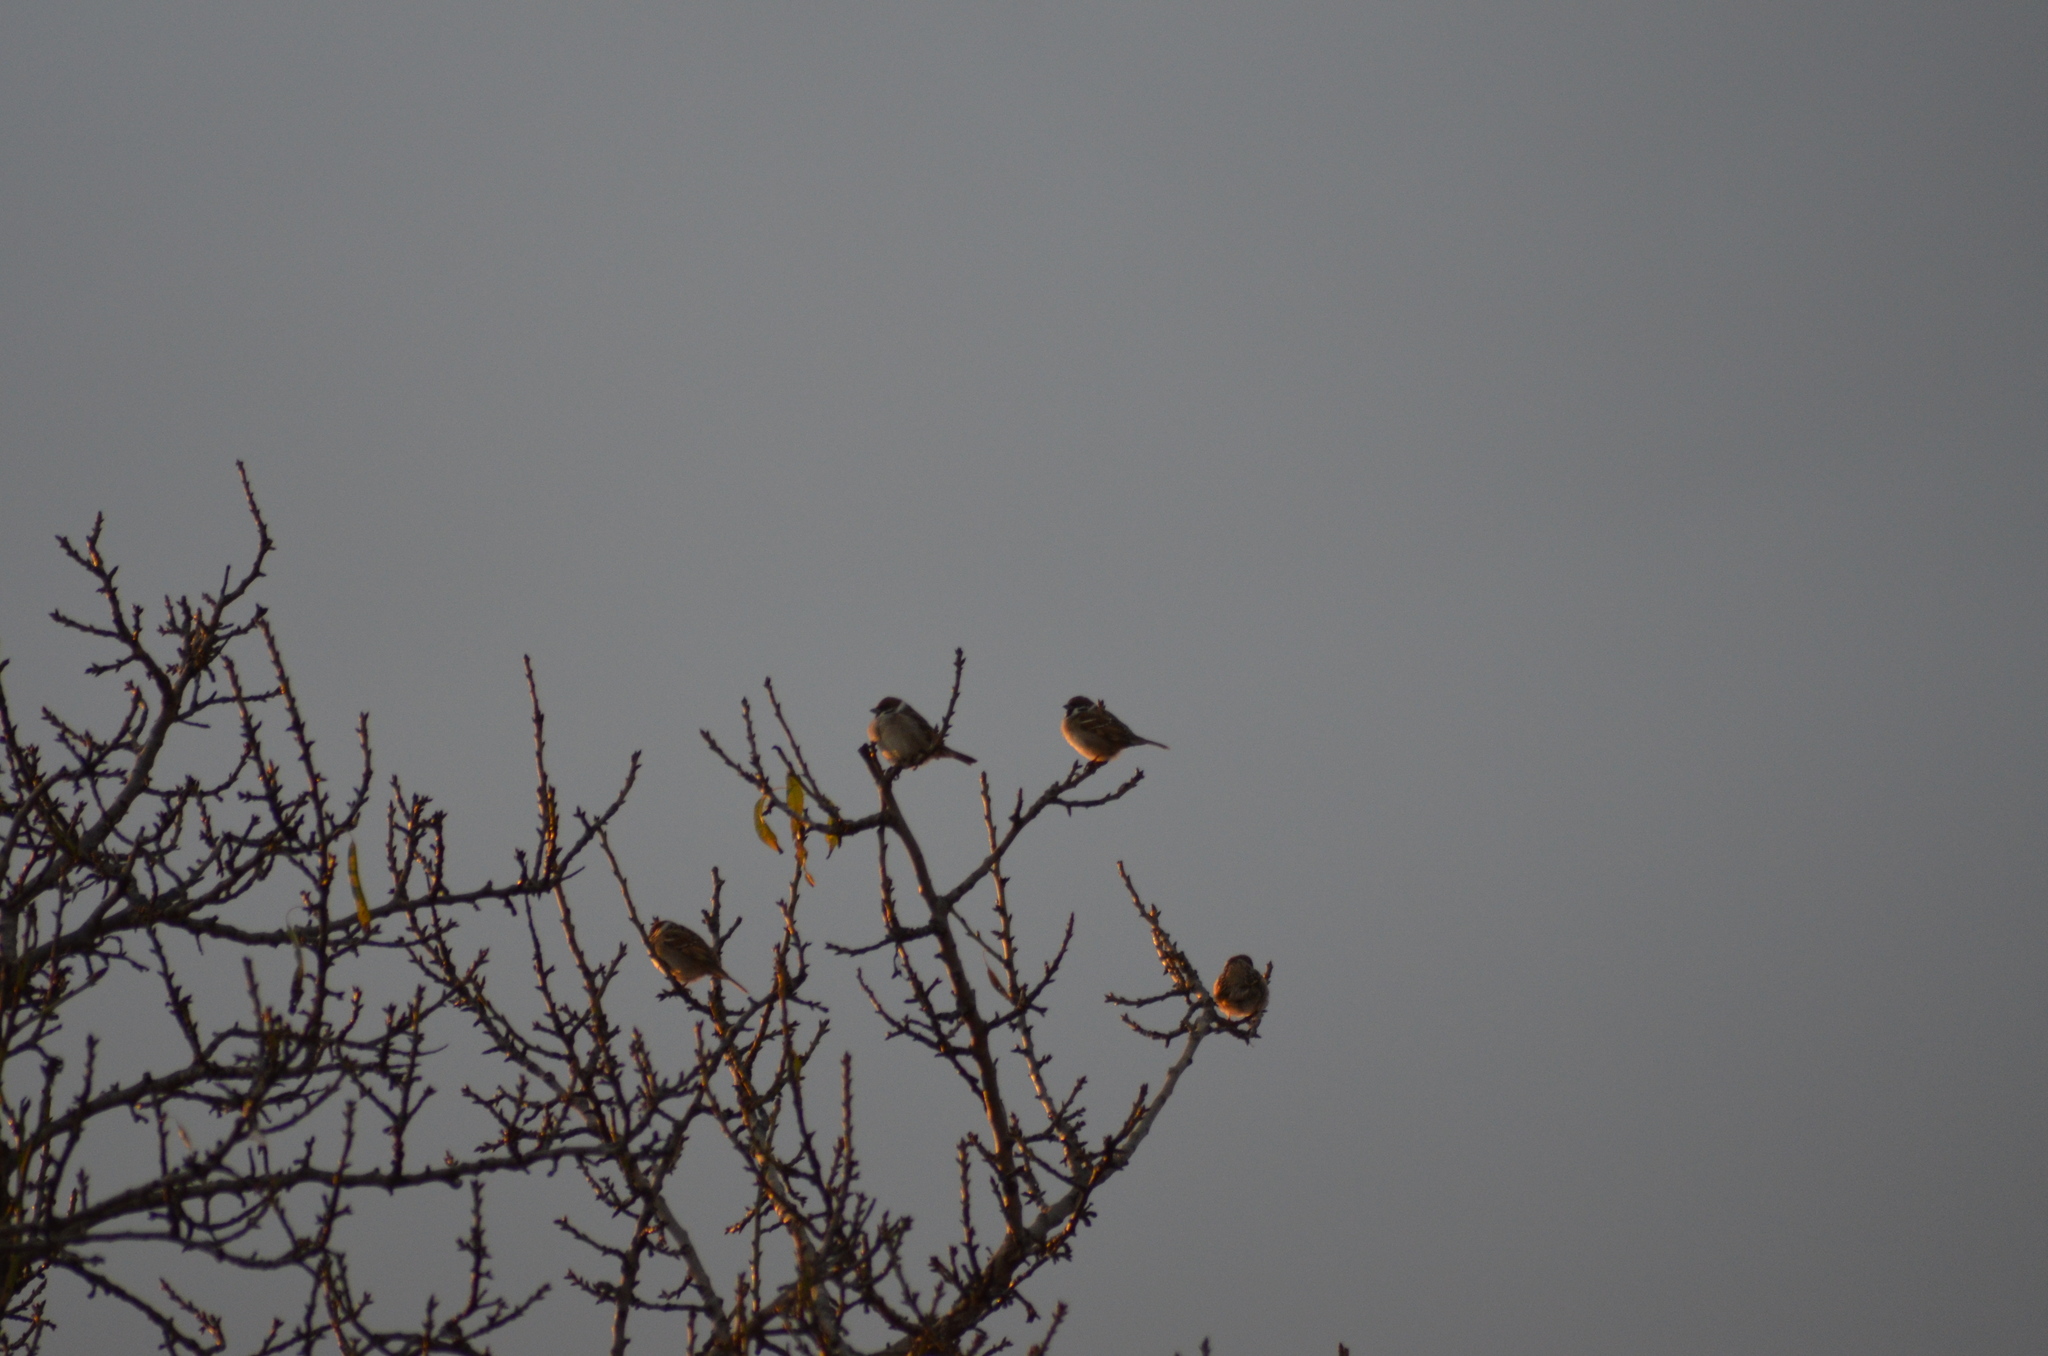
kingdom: Animalia
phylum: Chordata
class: Aves
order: Passeriformes
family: Passeridae
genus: Passer
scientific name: Passer montanus
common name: Eurasian tree sparrow
